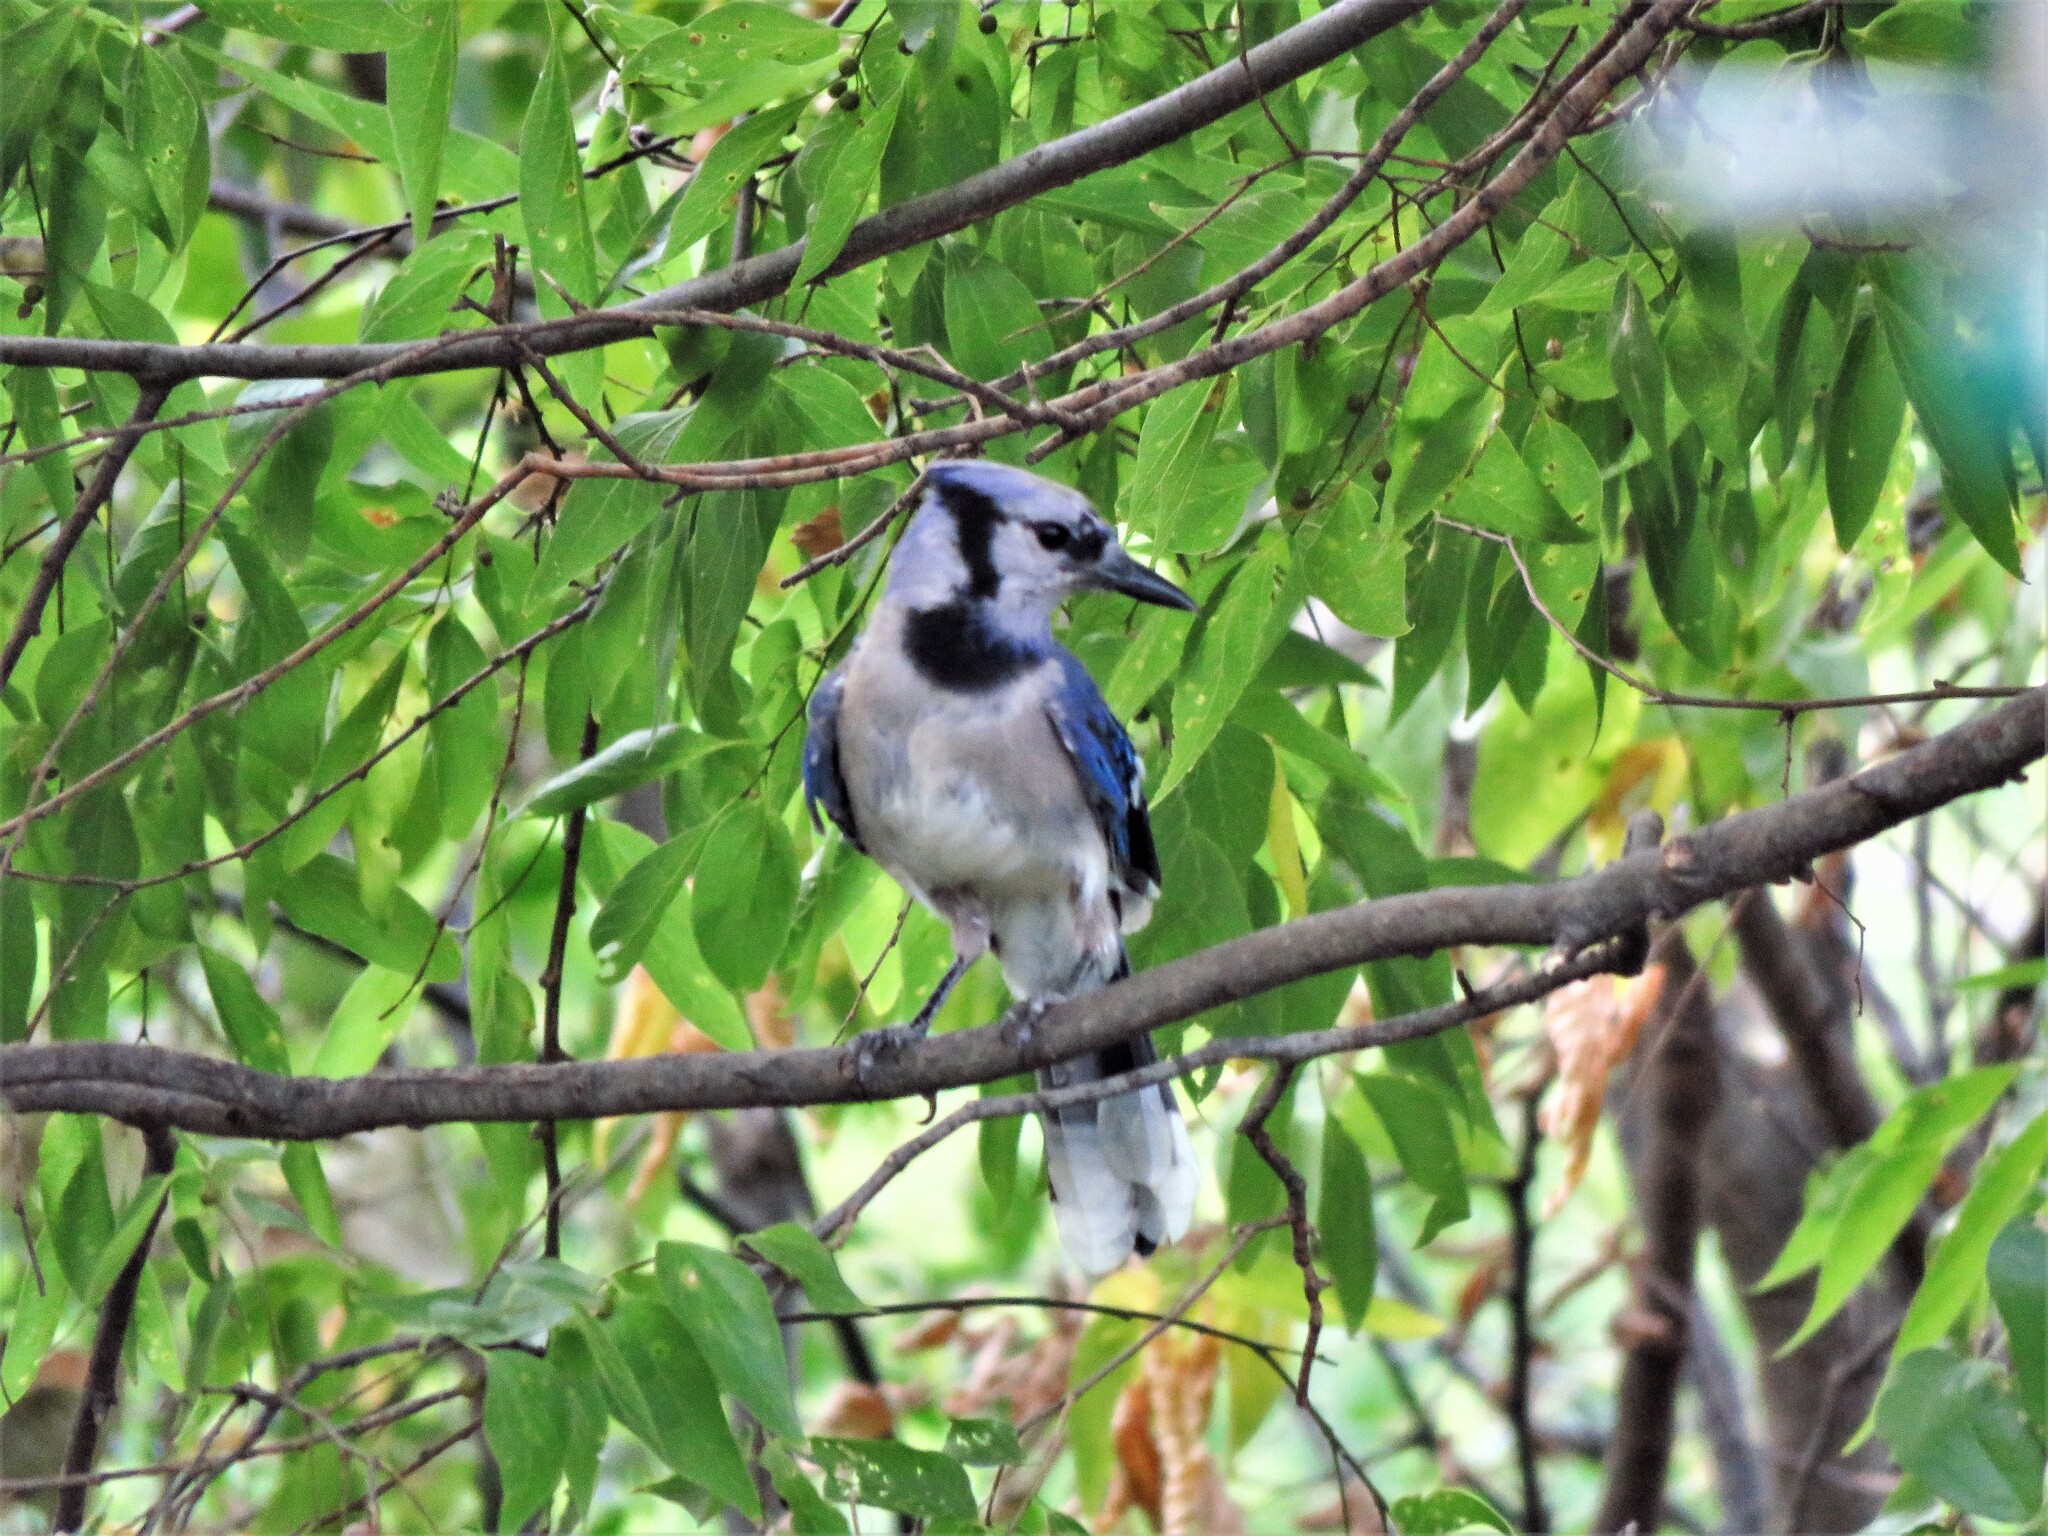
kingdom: Animalia
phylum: Chordata
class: Aves
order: Passeriformes
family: Corvidae
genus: Cyanocitta
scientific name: Cyanocitta cristata
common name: Blue jay
